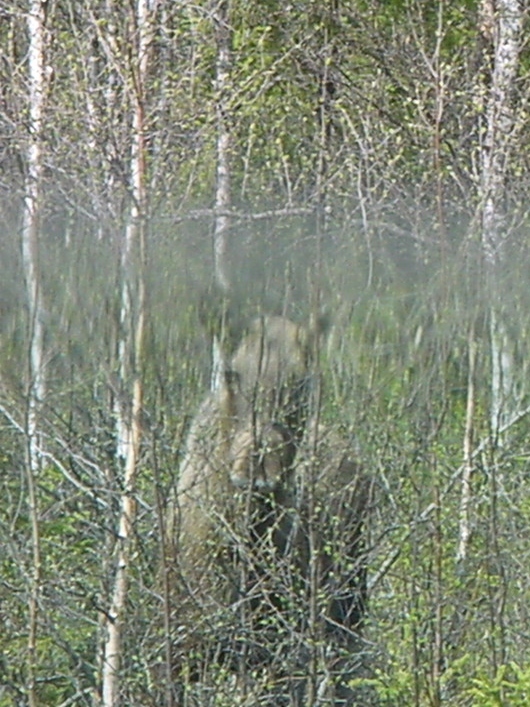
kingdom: Animalia
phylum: Chordata
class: Mammalia
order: Artiodactyla
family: Cervidae
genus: Alces
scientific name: Alces alces
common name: Moose
